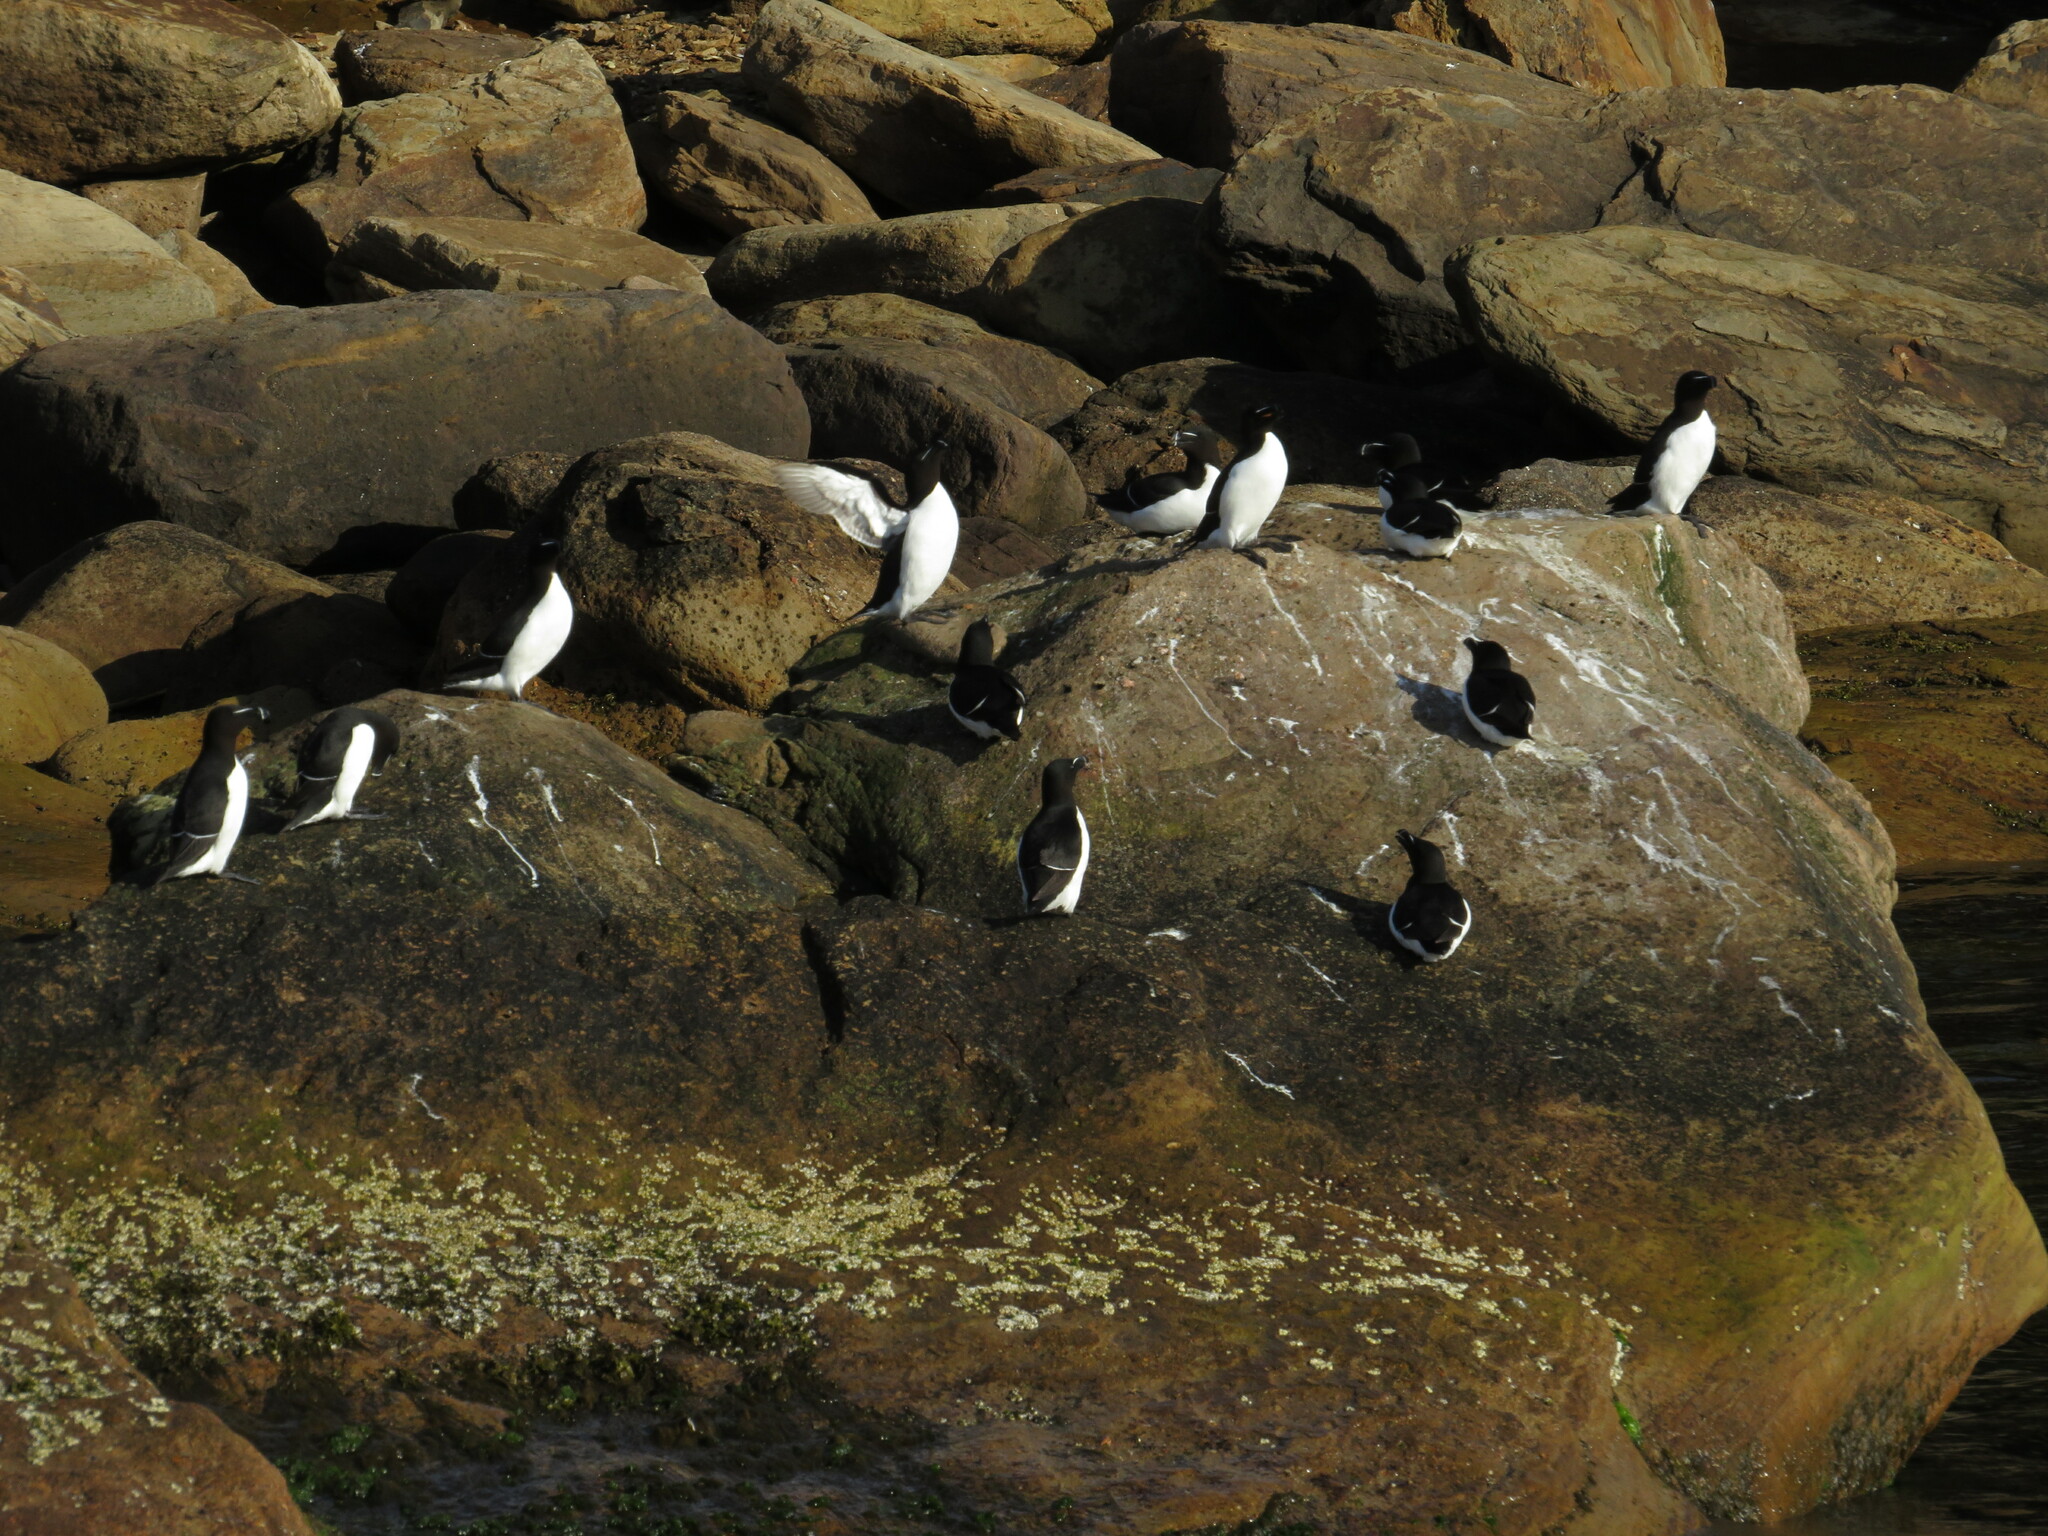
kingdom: Animalia
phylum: Chordata
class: Aves
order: Charadriiformes
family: Alcidae
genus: Alca
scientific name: Alca torda
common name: Razorbill
